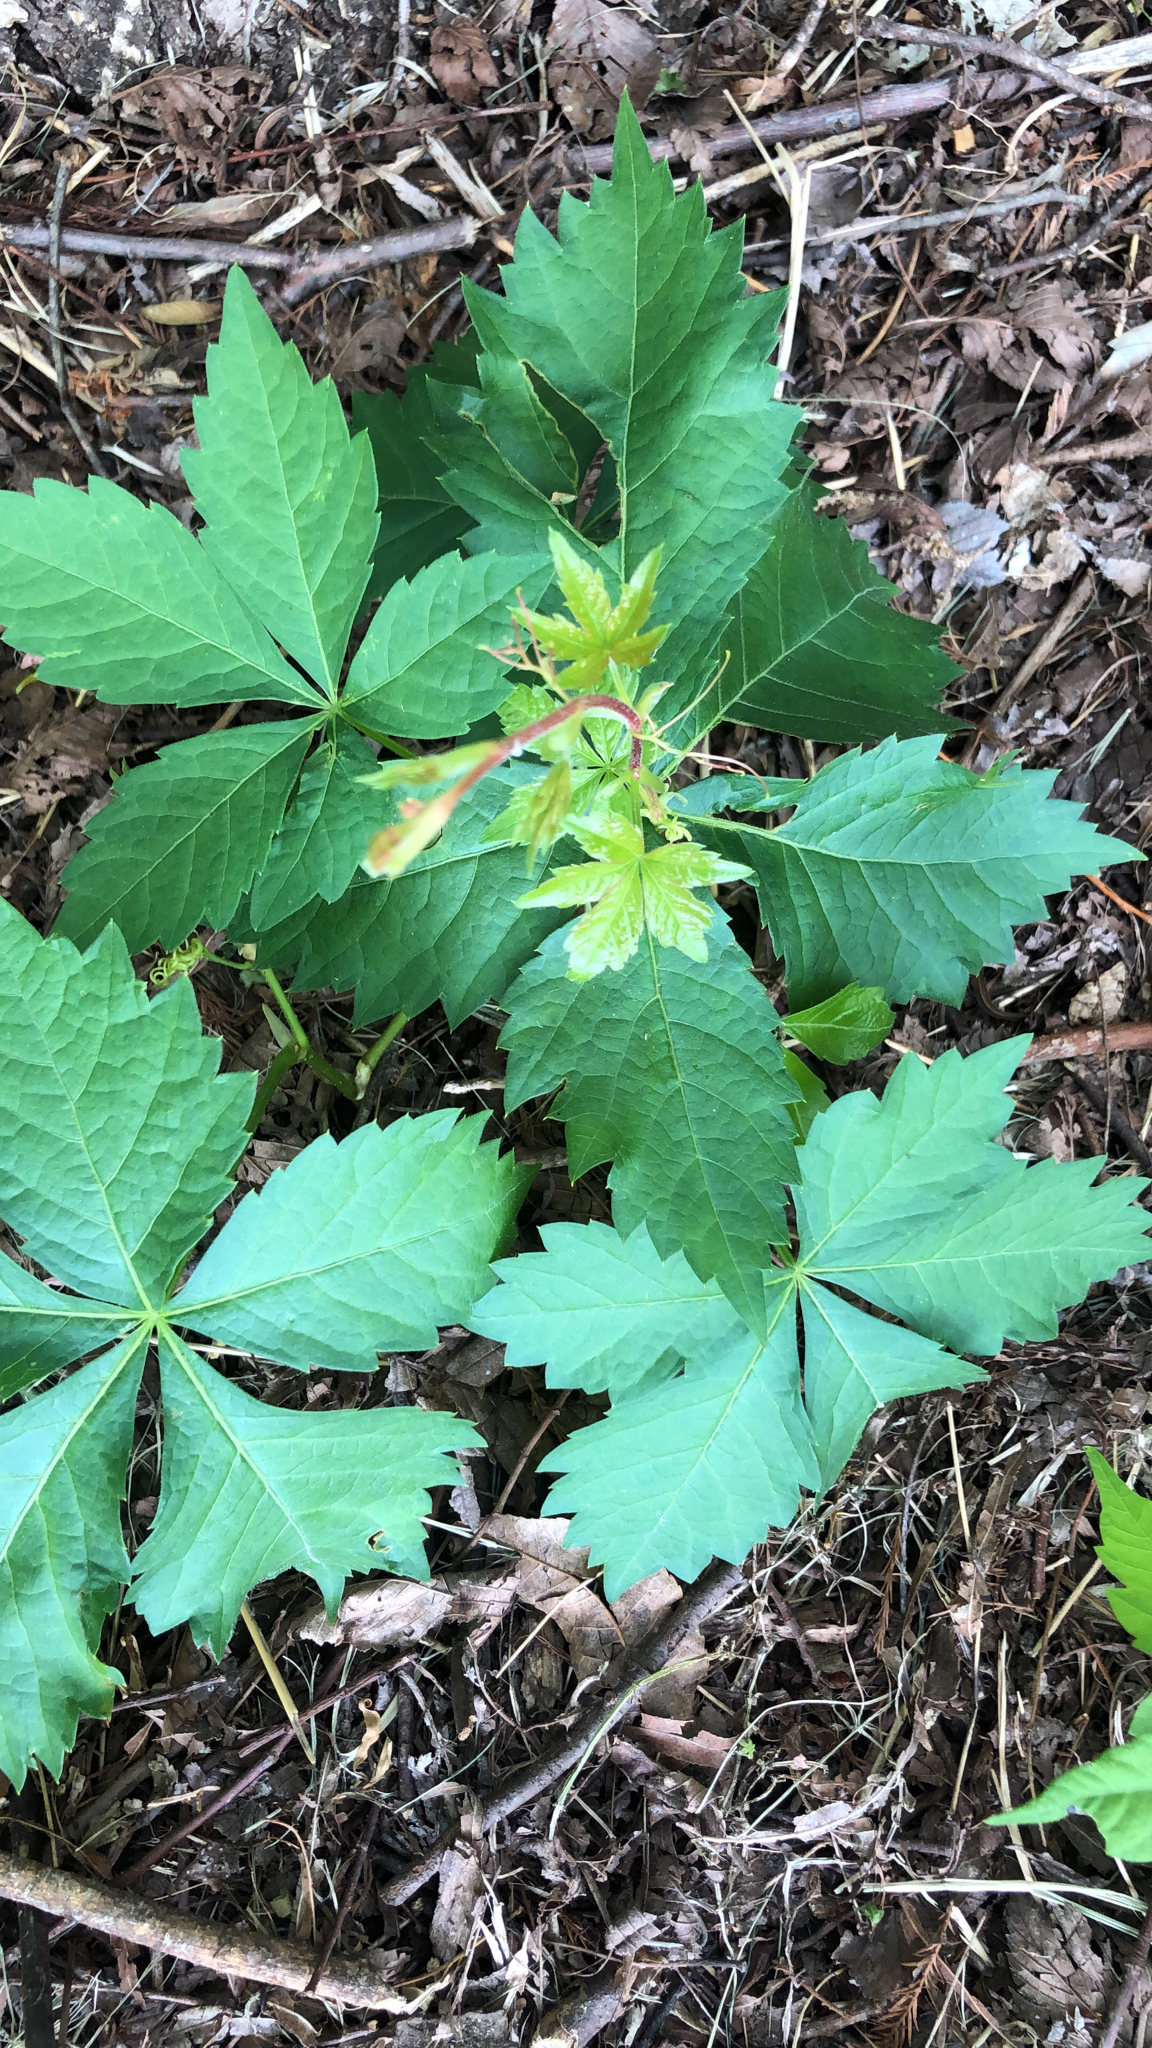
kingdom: Plantae
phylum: Tracheophyta
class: Magnoliopsida
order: Vitales
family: Vitaceae
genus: Parthenocissus
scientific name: Parthenocissus quinquefolia
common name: Virginia-creeper
